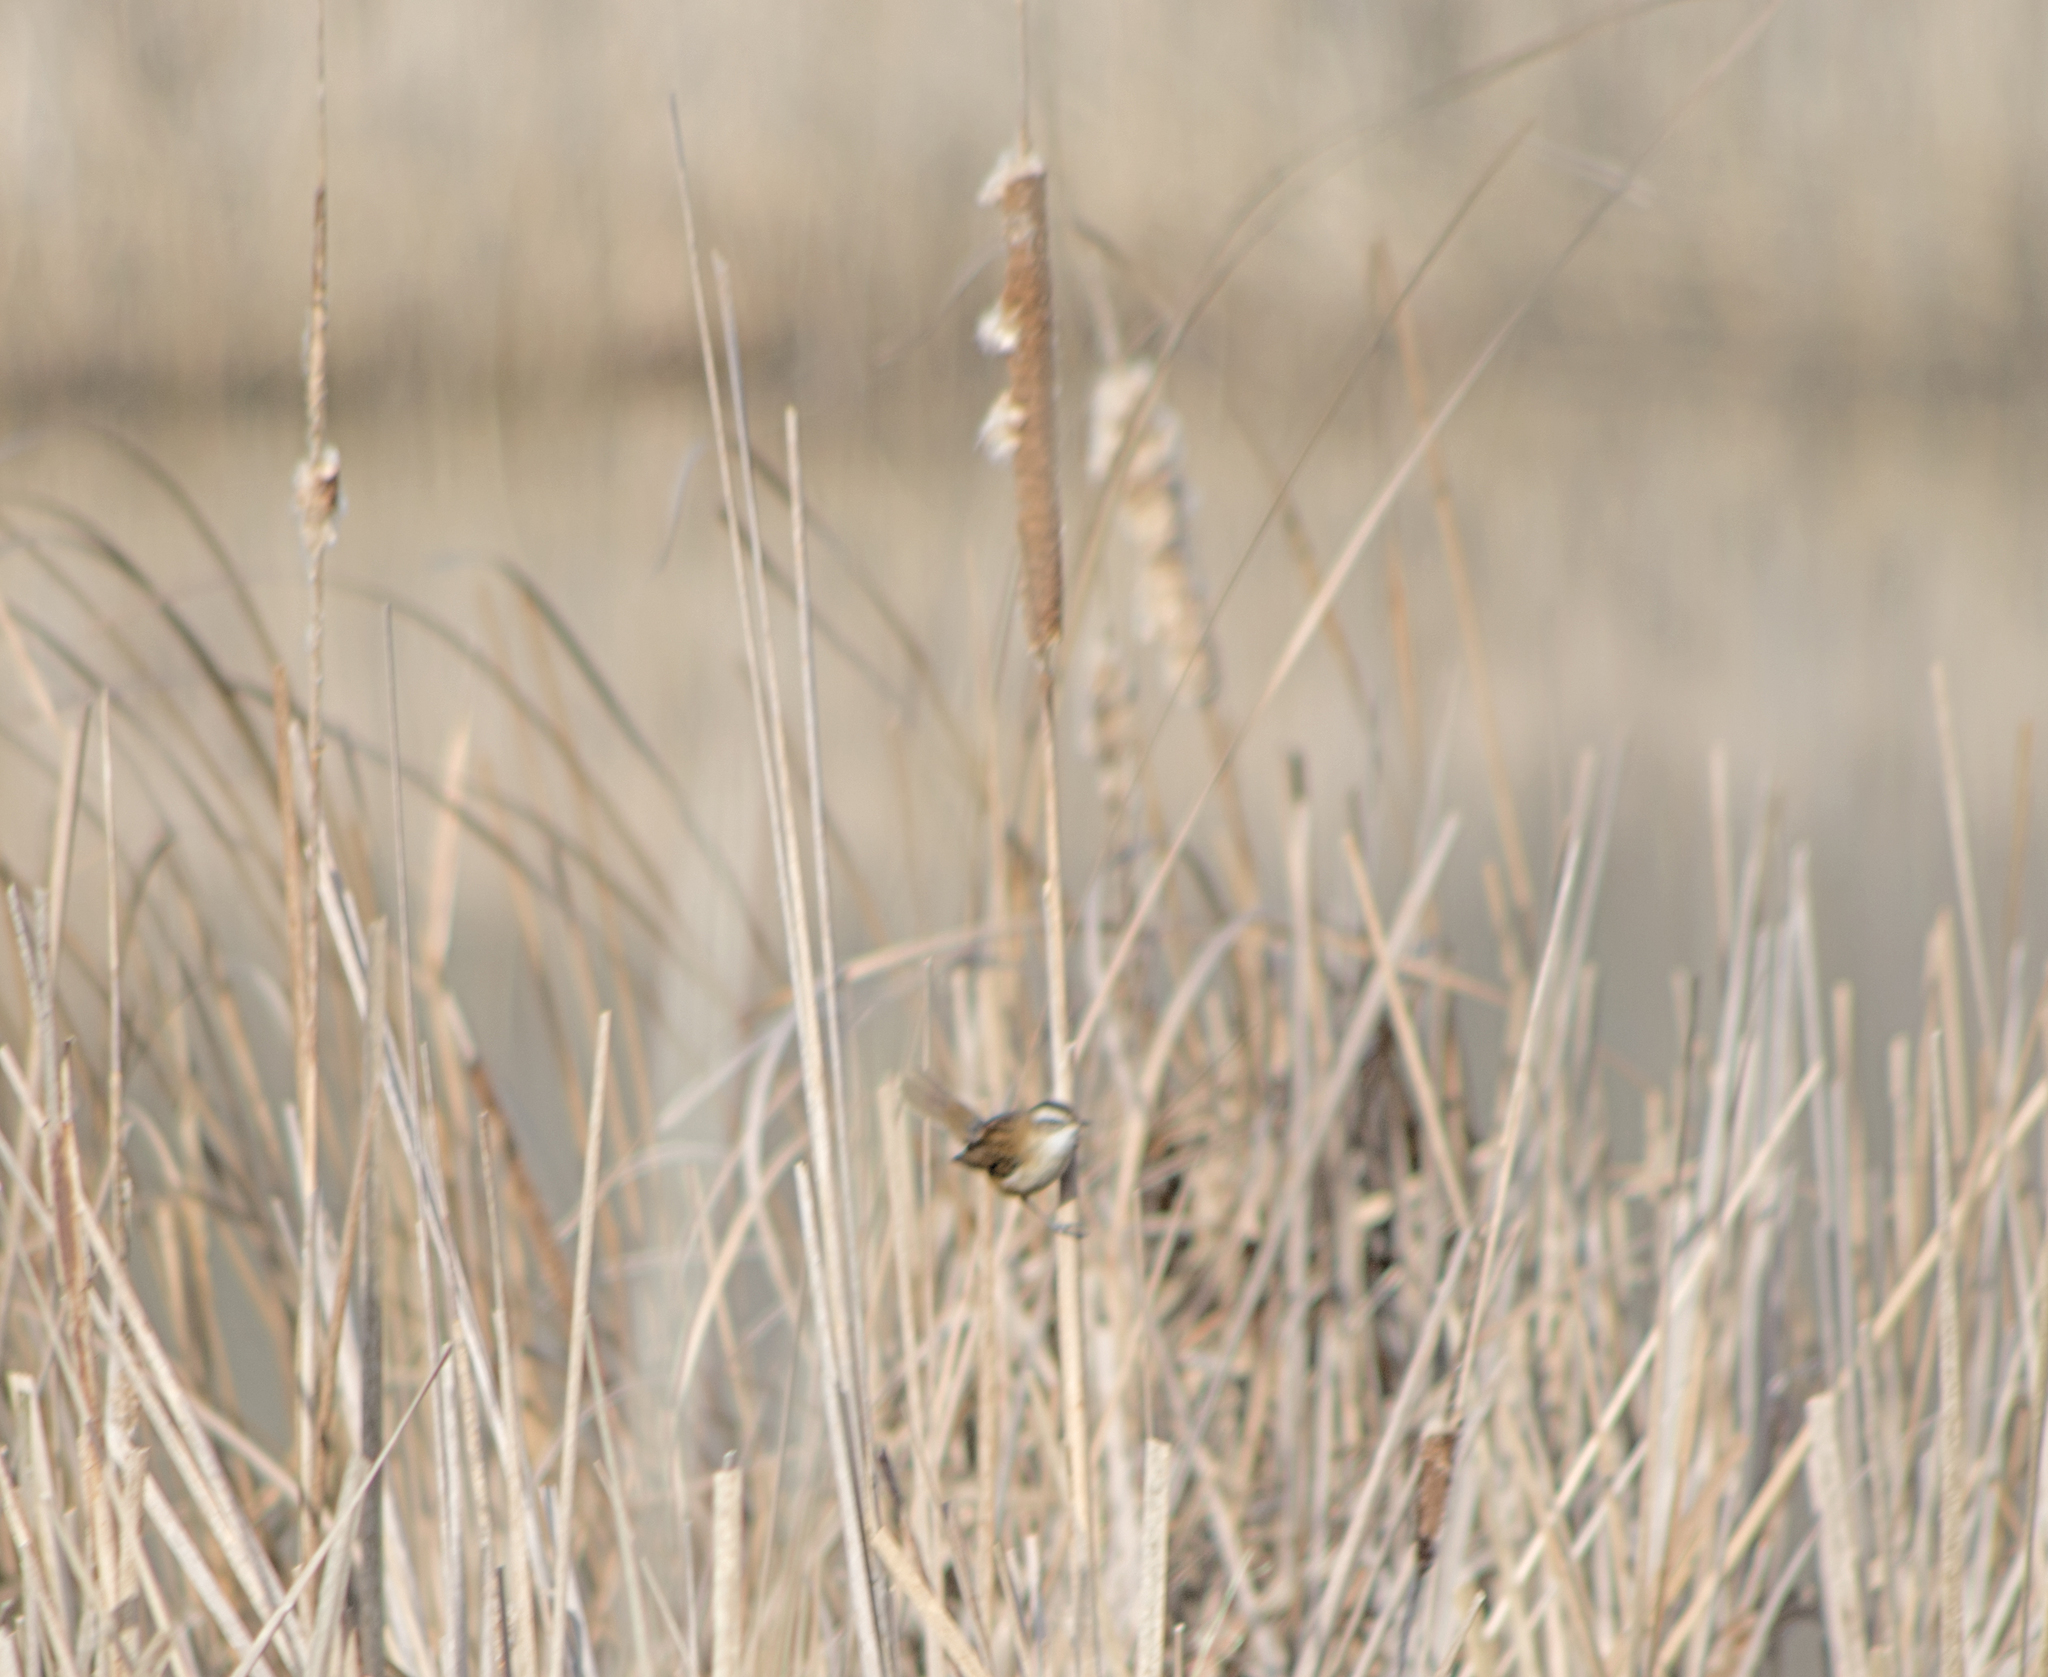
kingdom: Animalia
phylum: Chordata
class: Aves
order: Passeriformes
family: Troglodytidae
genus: Troglodytes
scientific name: Troglodytes troglodytes
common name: Eurasian wren
